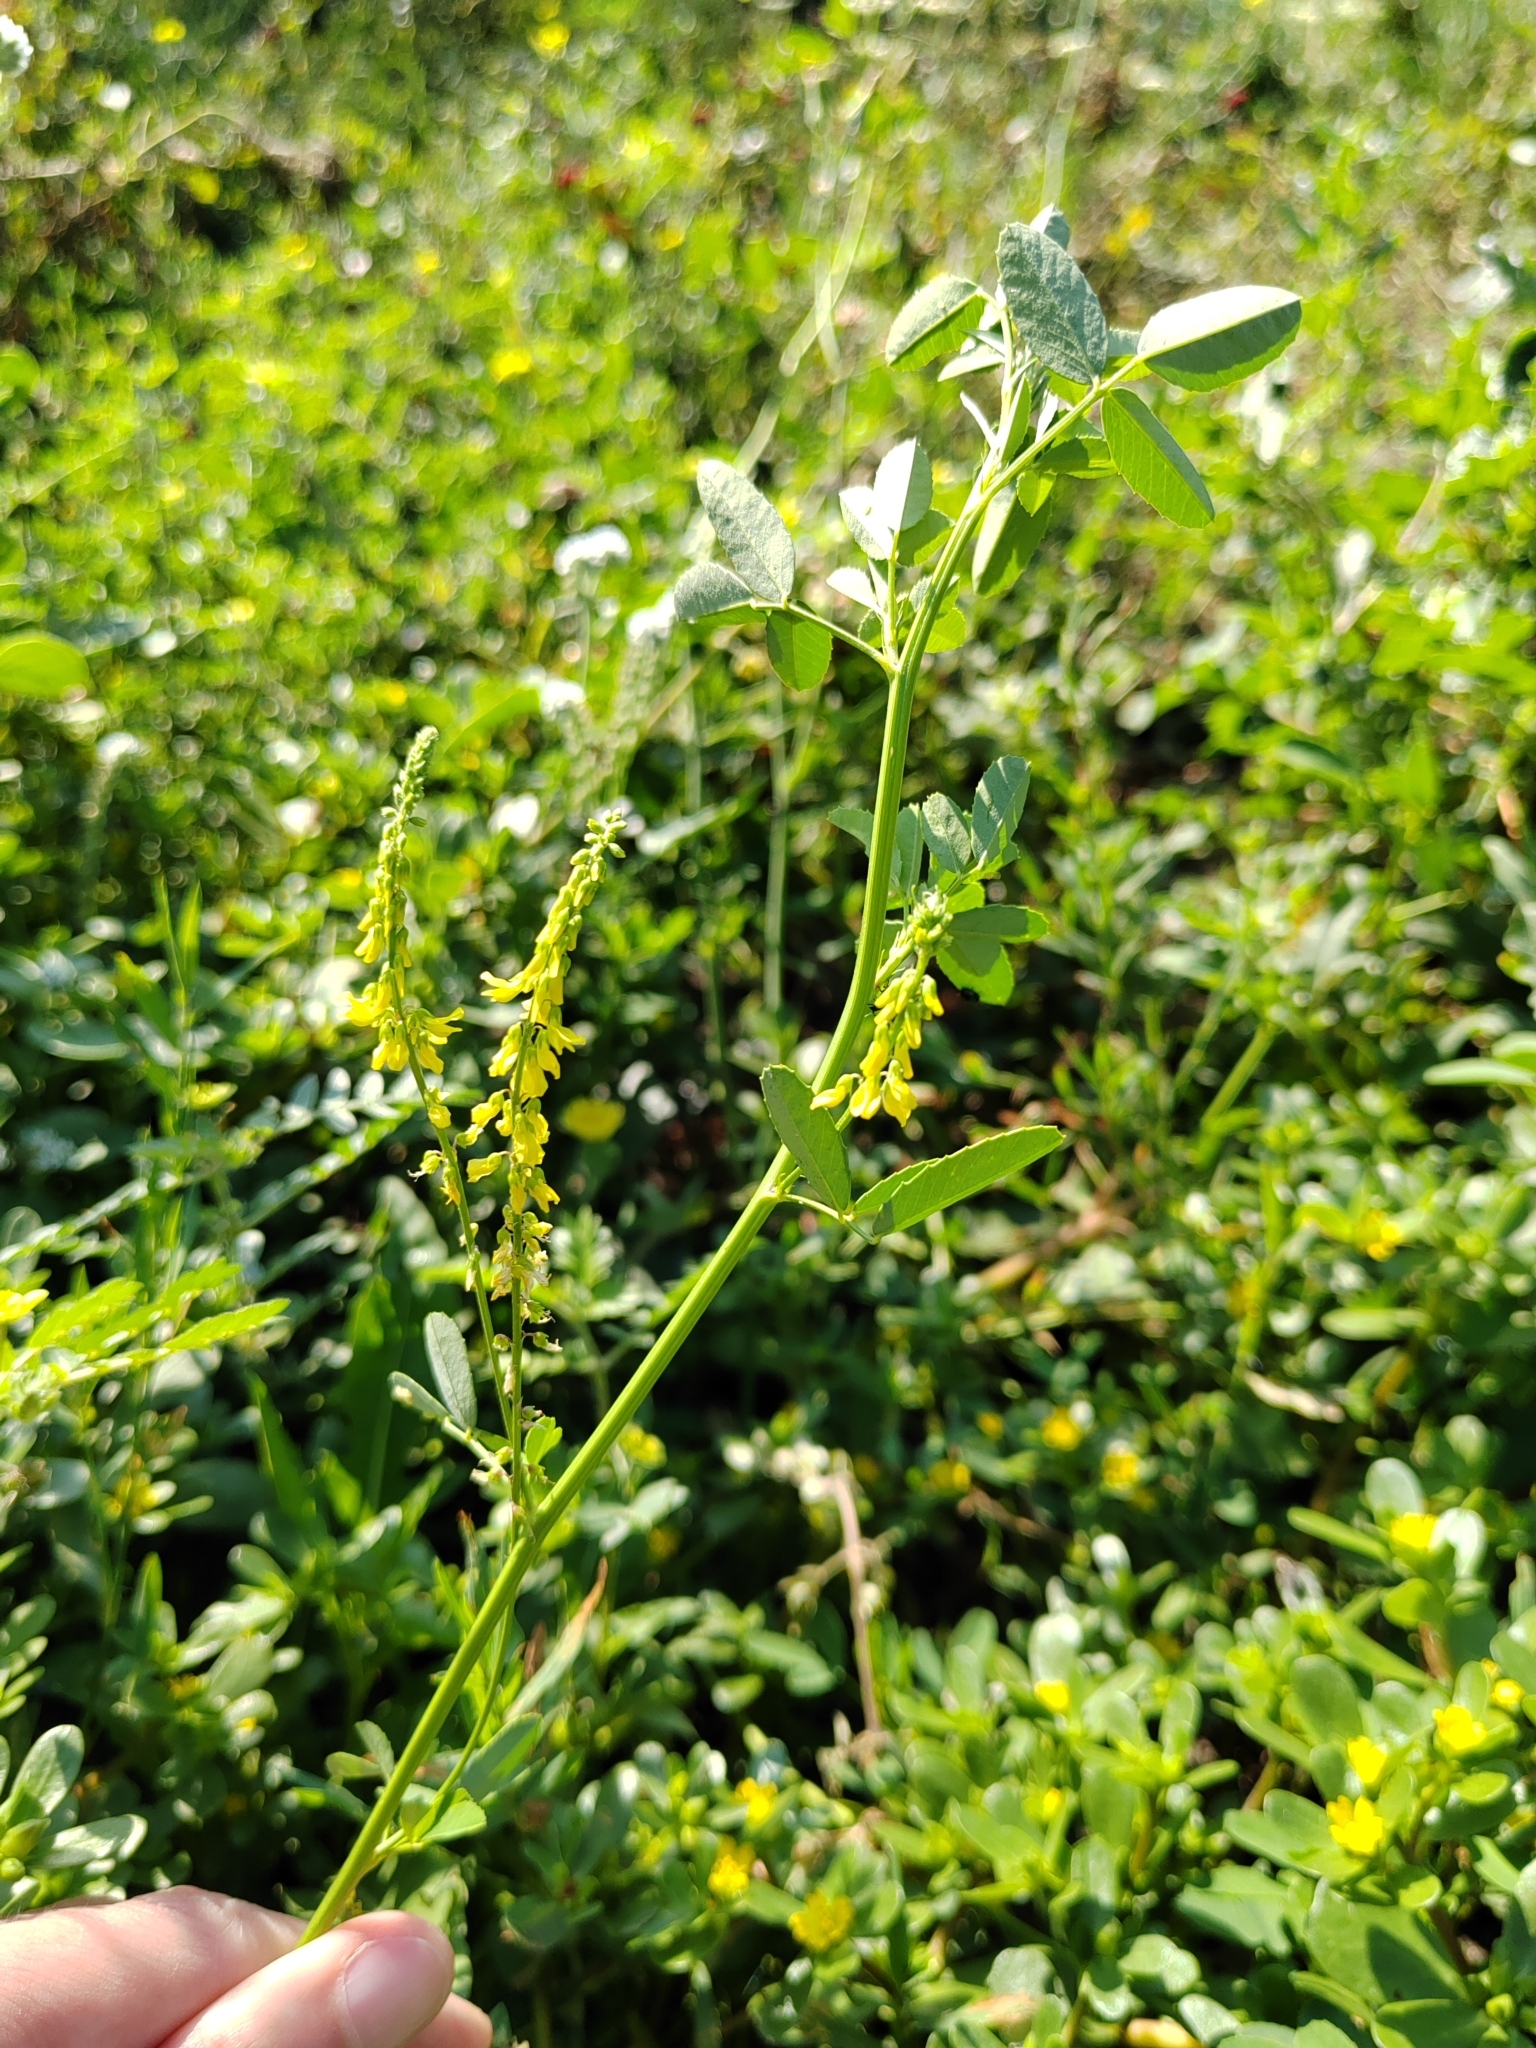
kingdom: Plantae
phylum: Tracheophyta
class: Magnoliopsida
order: Fabales
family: Fabaceae
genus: Melilotus
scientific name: Melilotus officinalis
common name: Sweetclover
